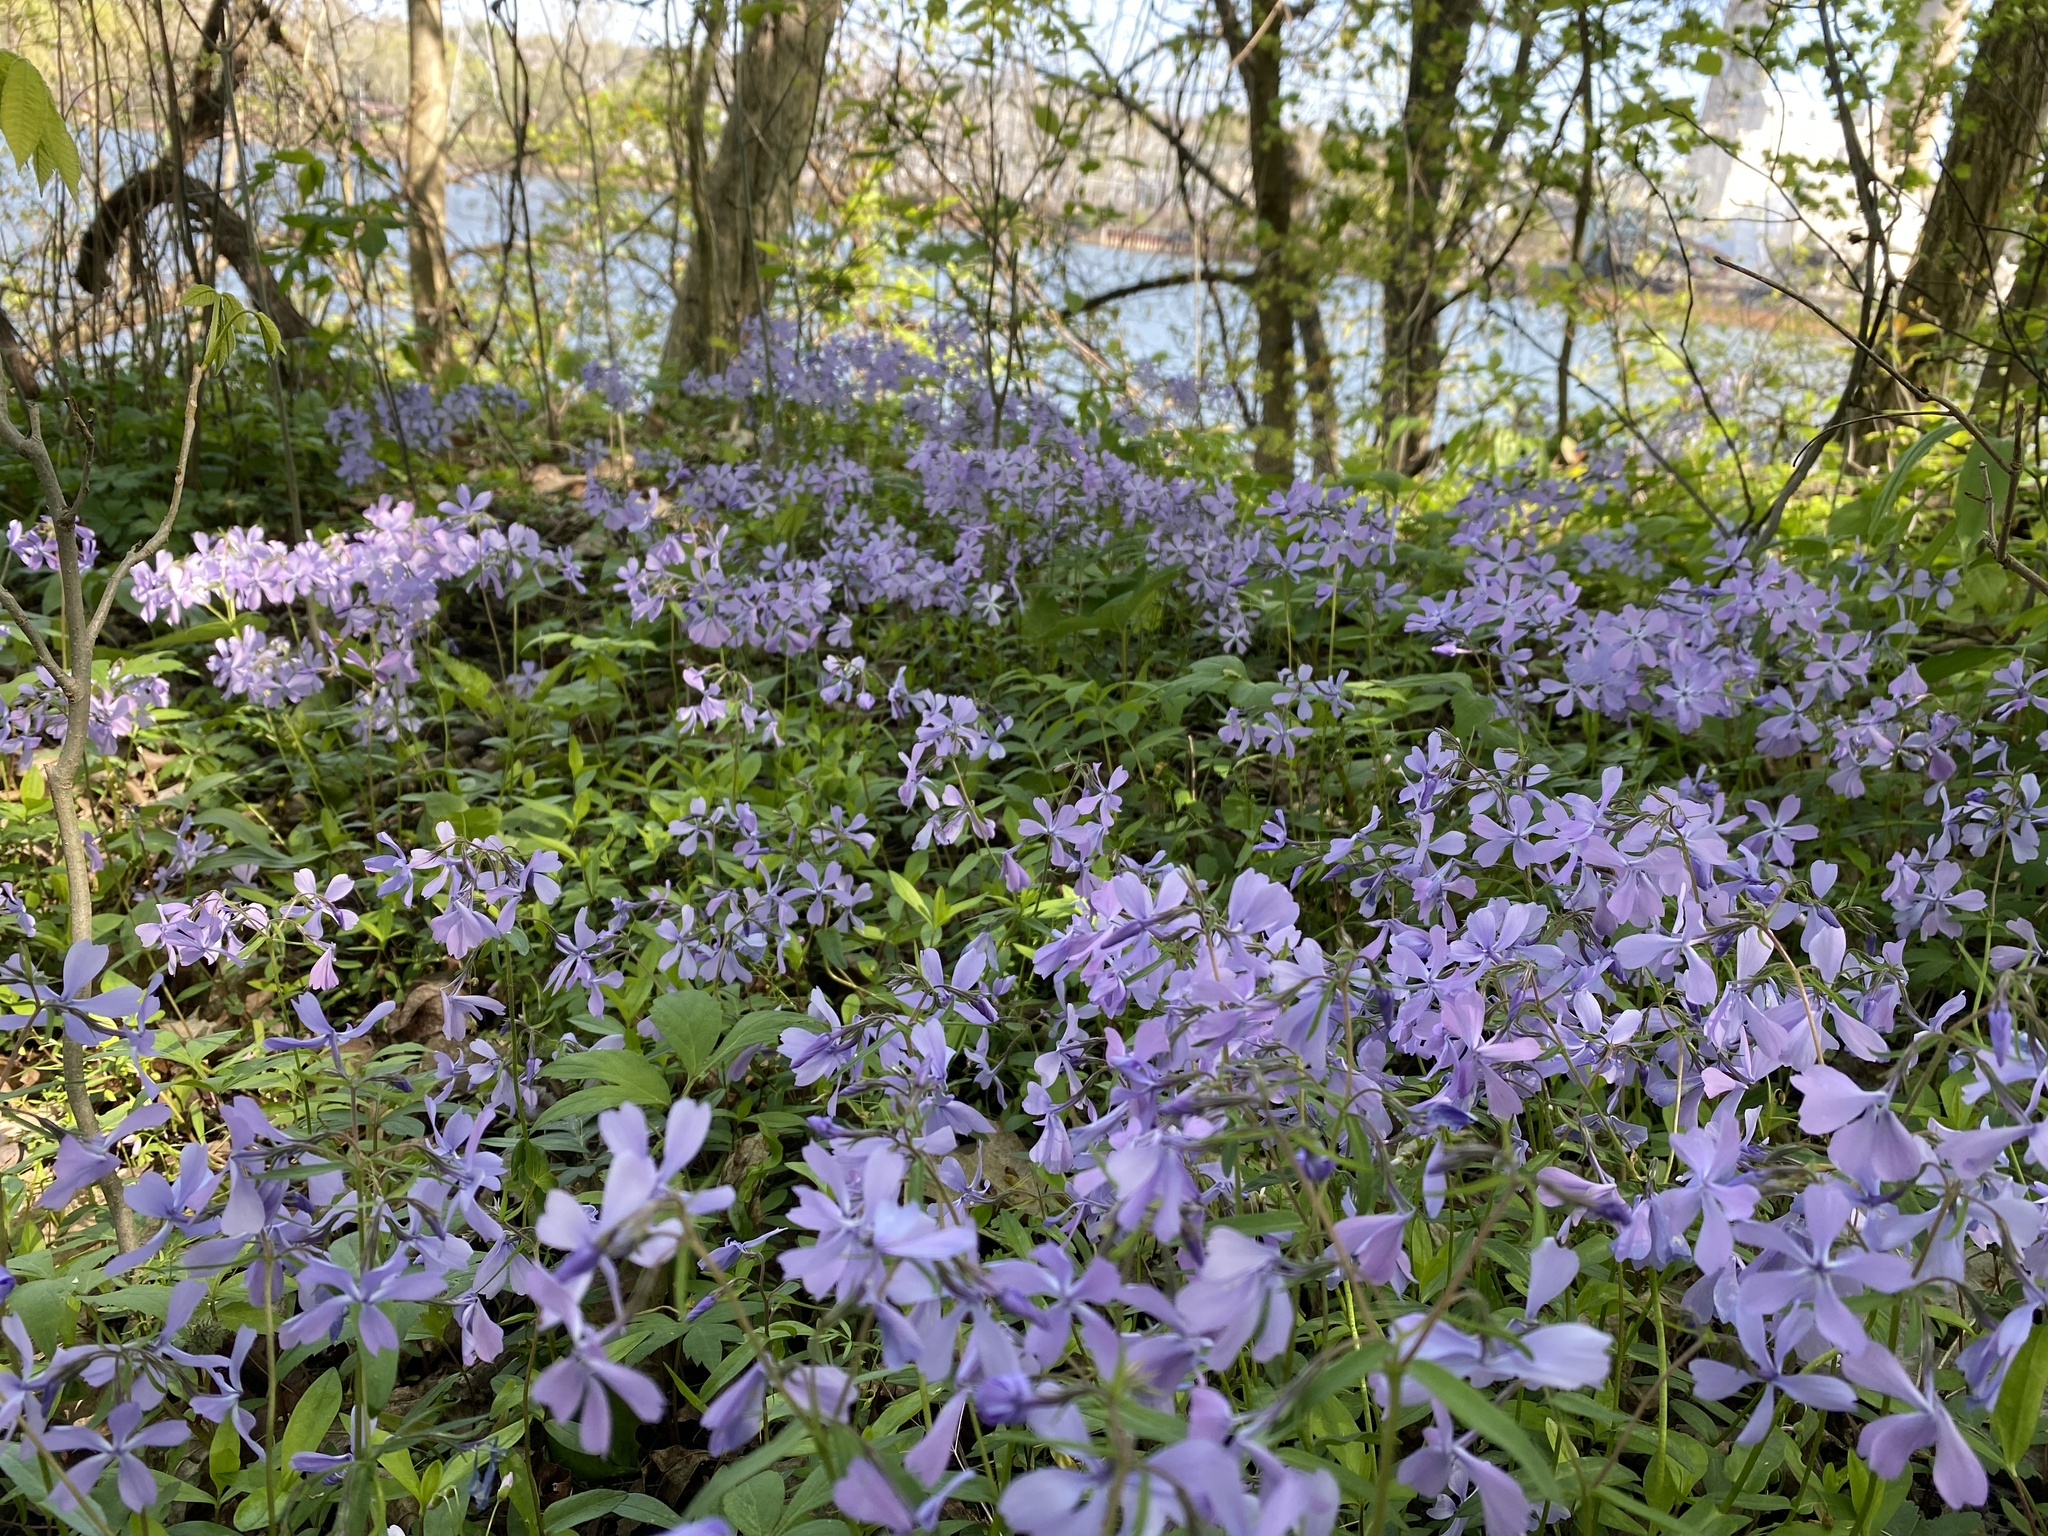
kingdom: Plantae
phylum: Tracheophyta
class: Magnoliopsida
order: Ericales
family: Polemoniaceae
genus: Phlox
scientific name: Phlox divaricata
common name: Blue phlox
